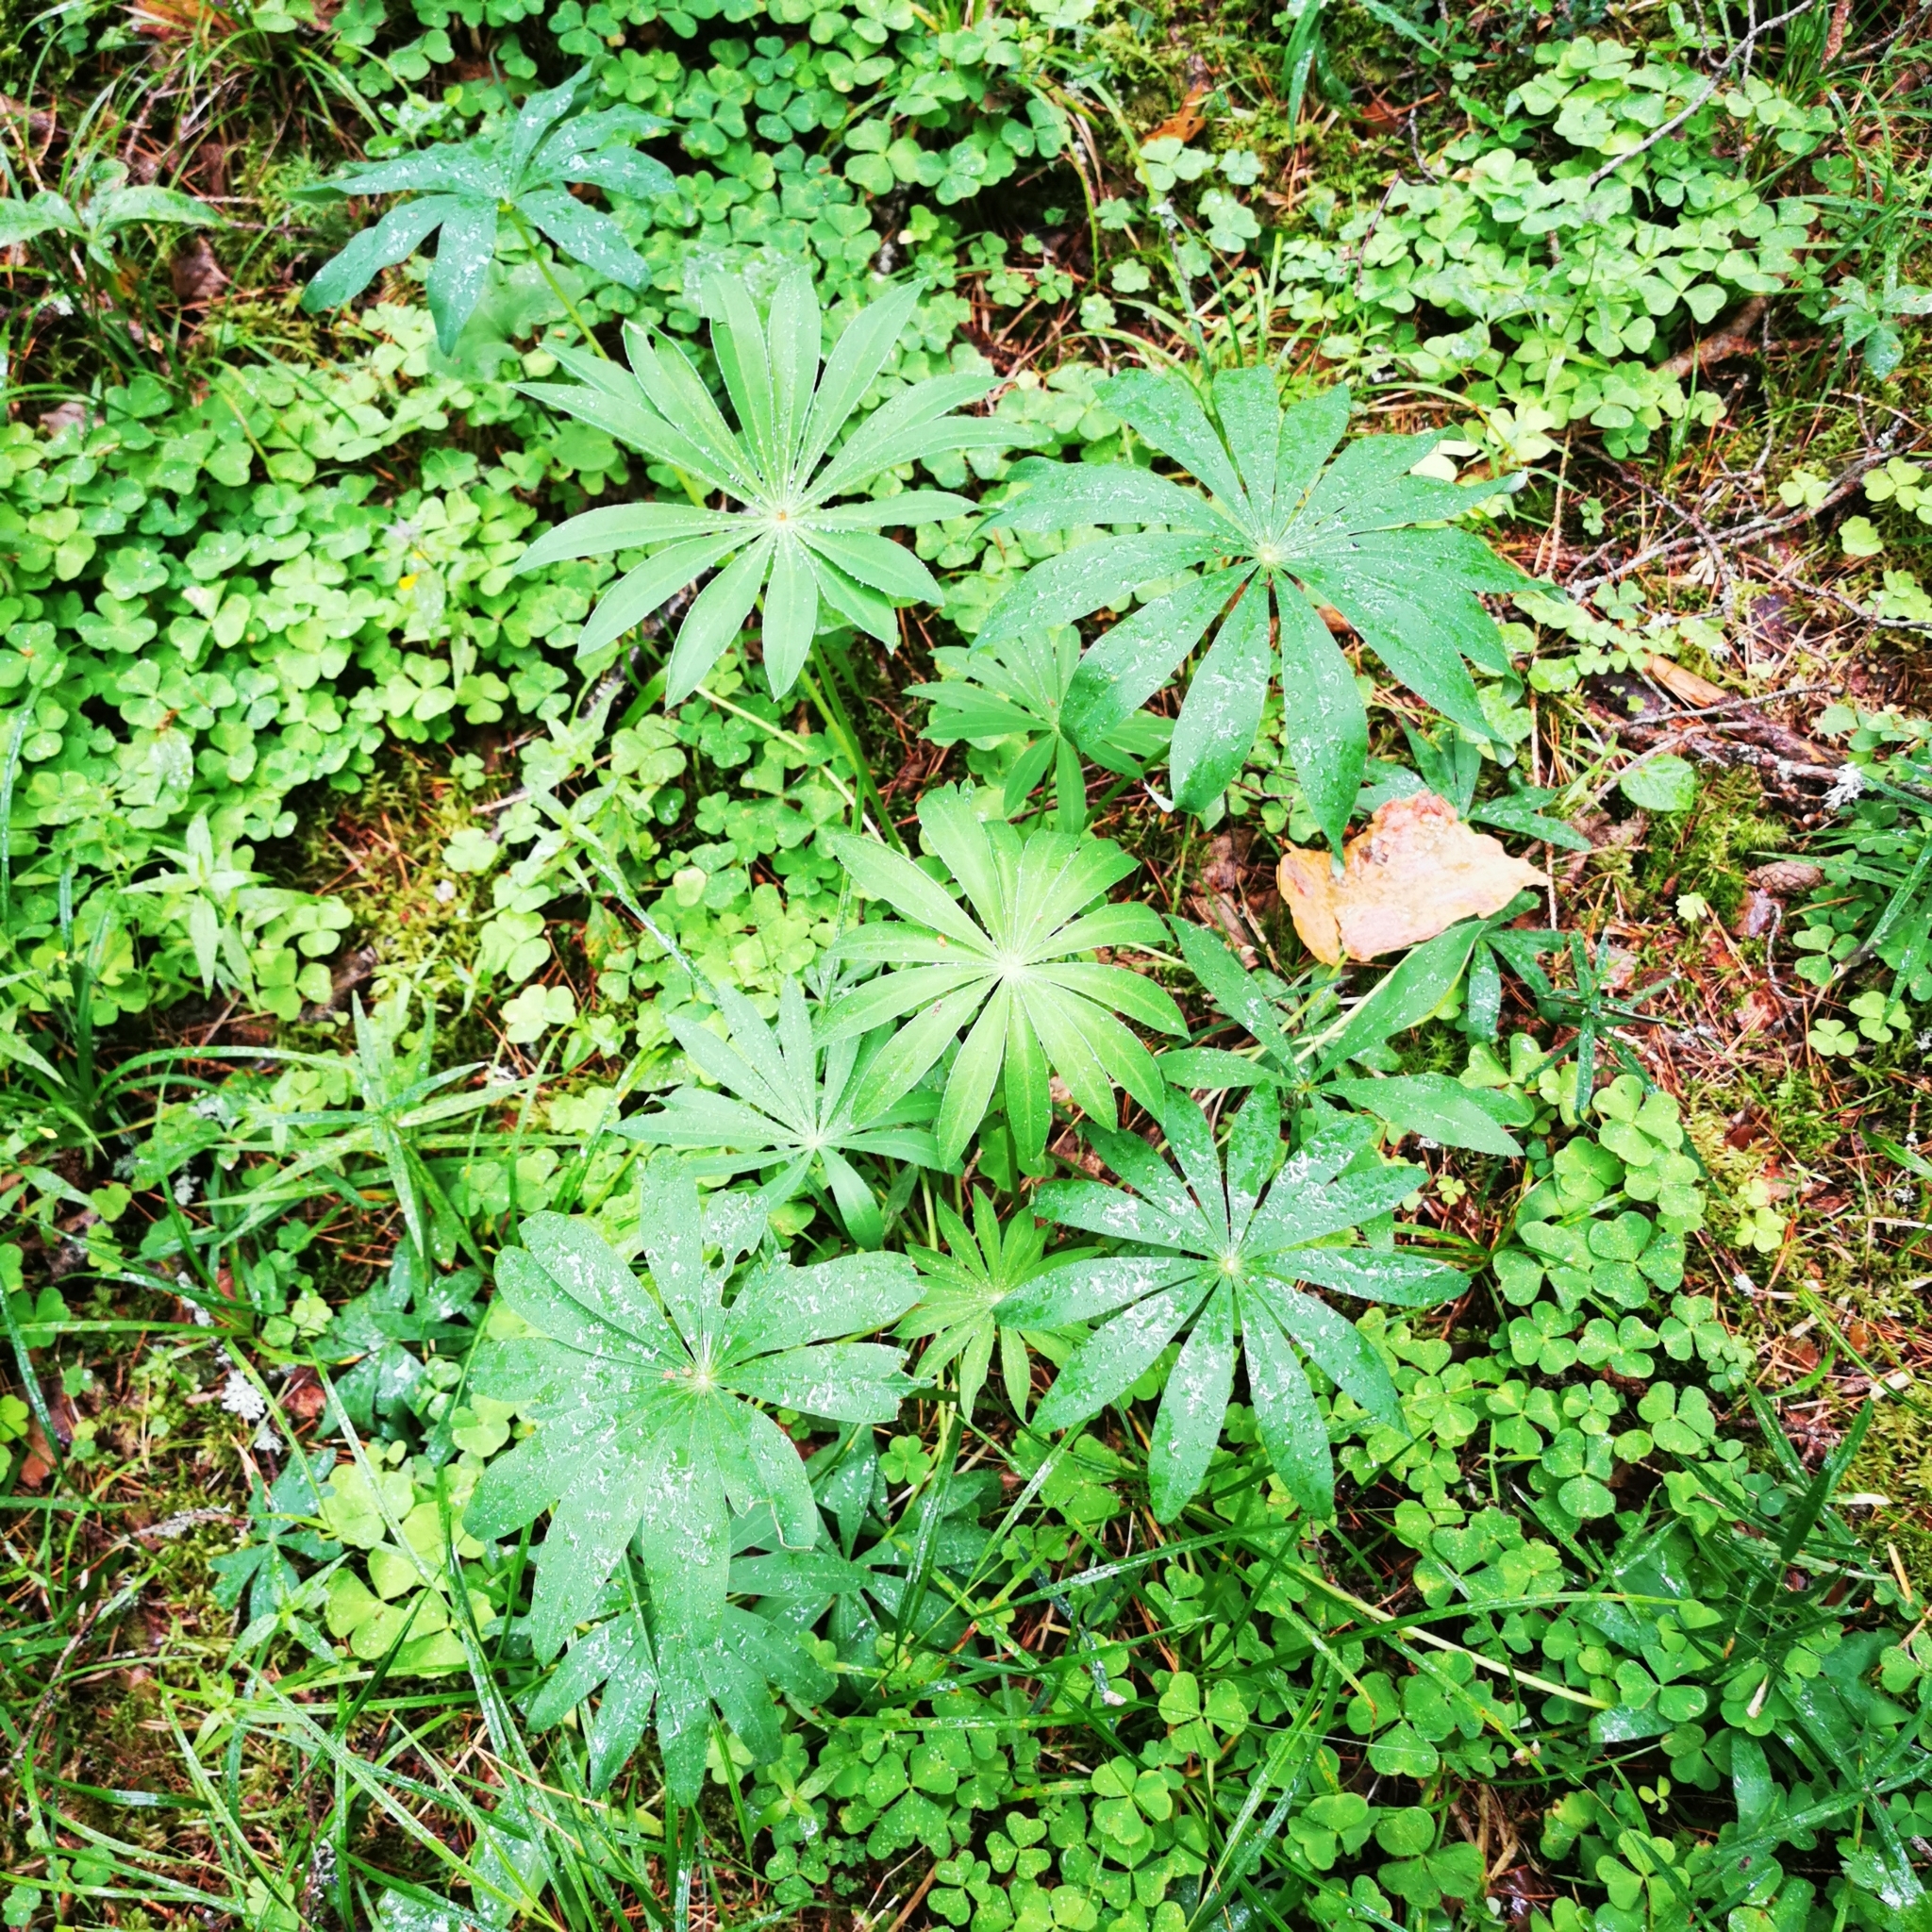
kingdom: Plantae
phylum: Tracheophyta
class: Magnoliopsida
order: Fabales
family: Fabaceae
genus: Lupinus
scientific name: Lupinus polyphyllus
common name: Garden lupin
